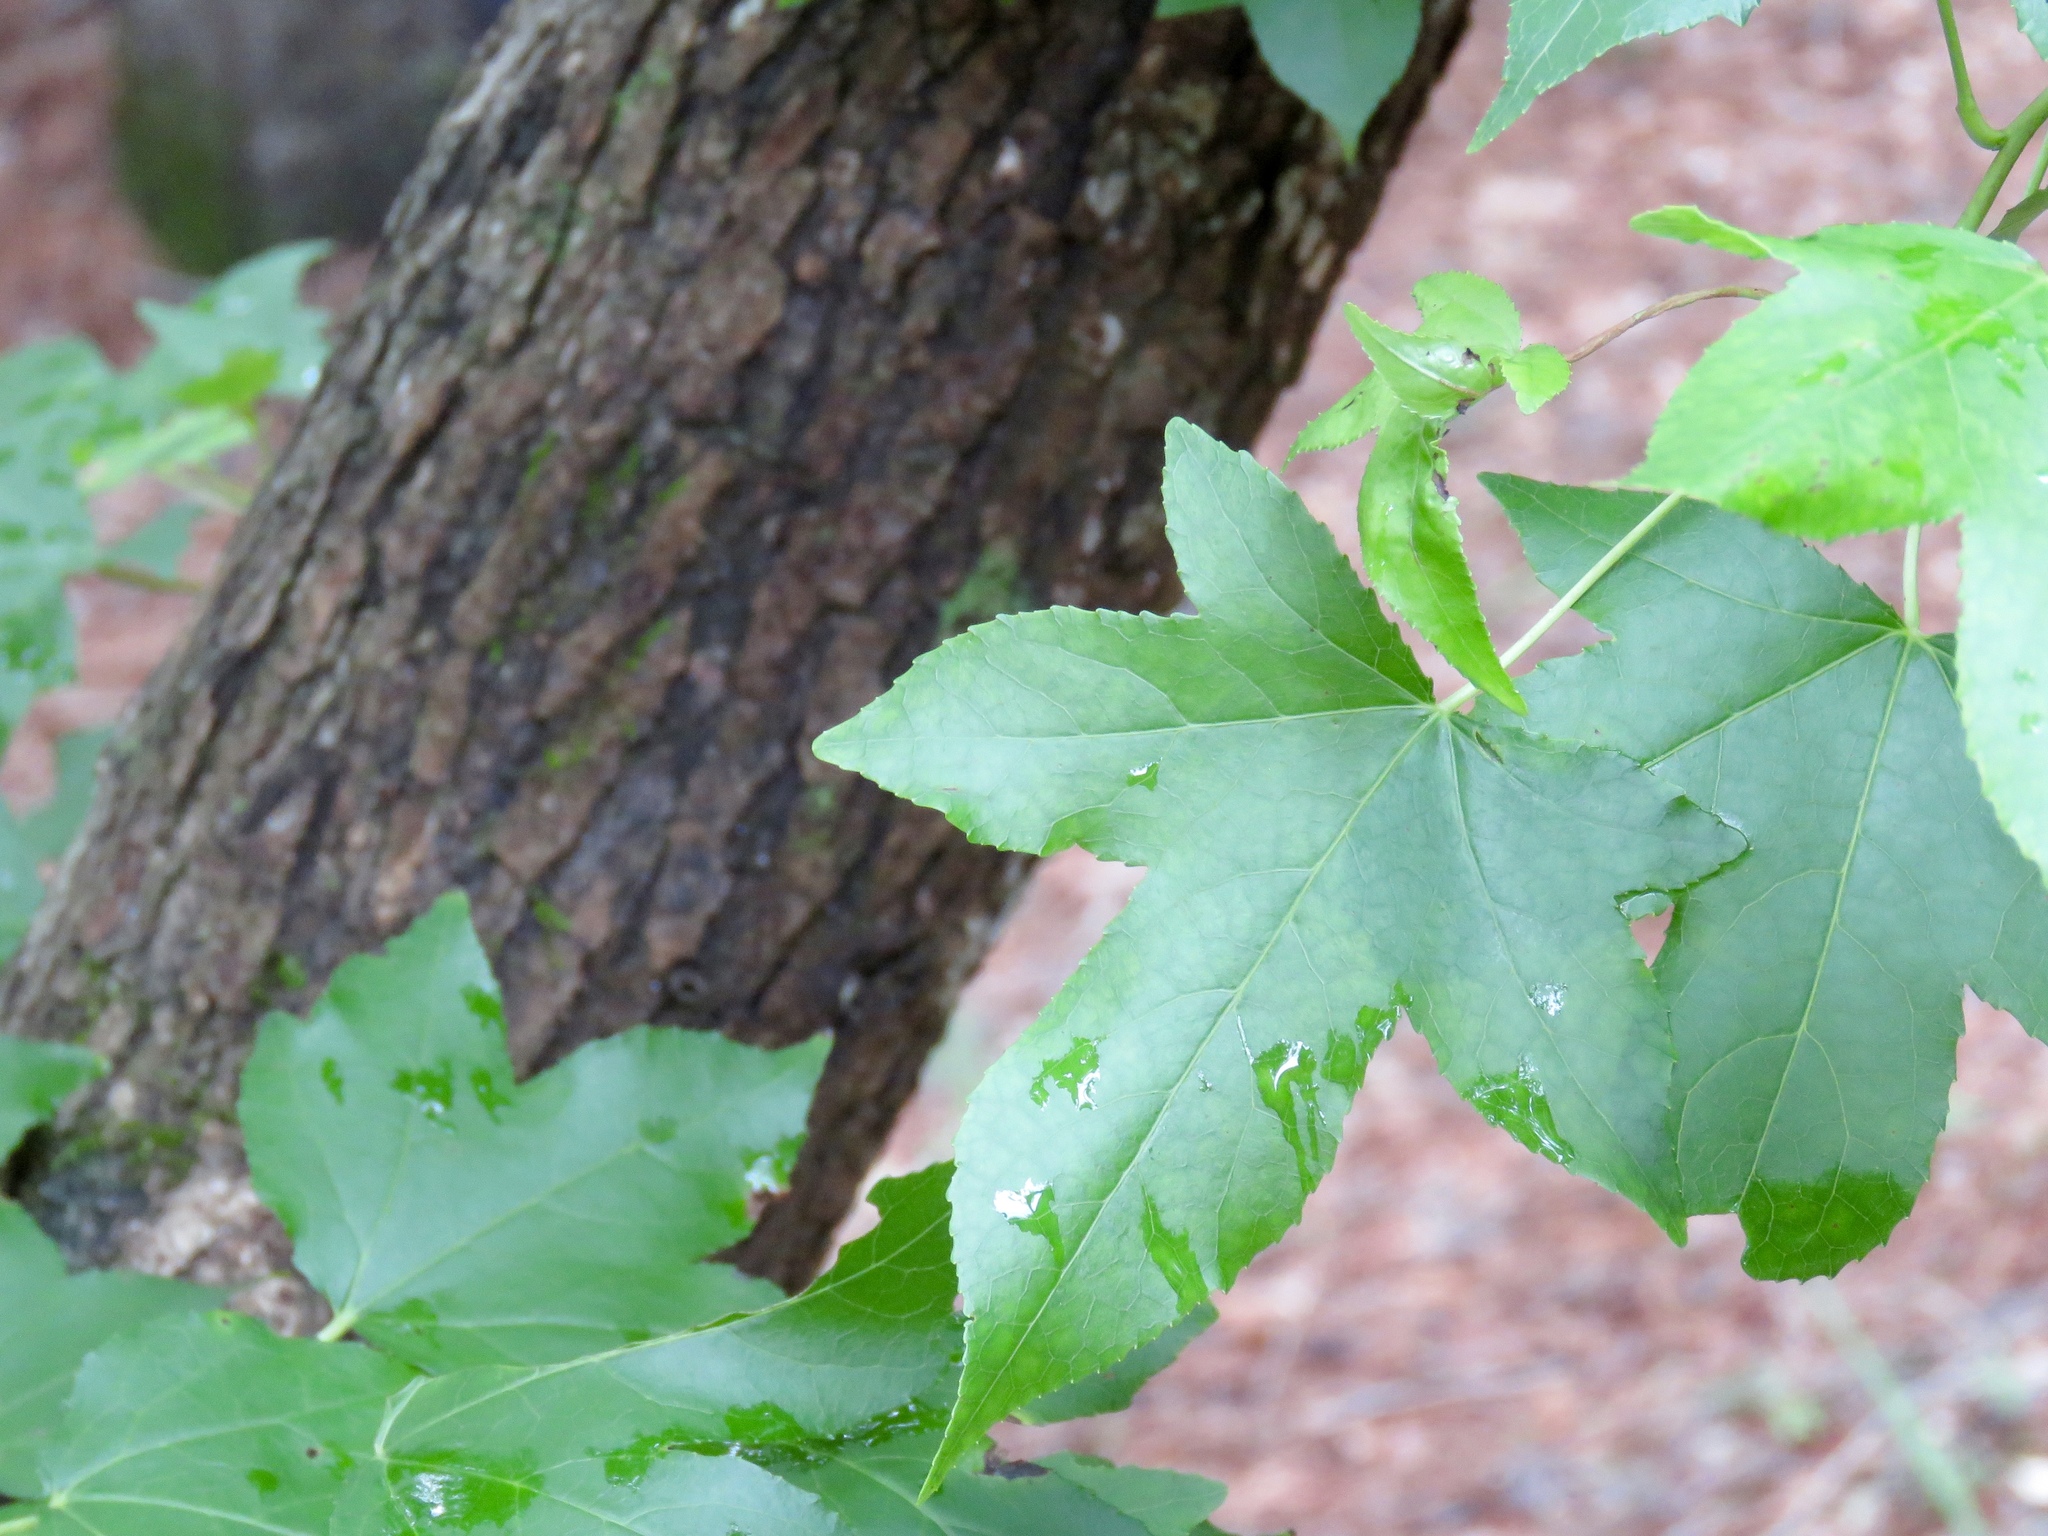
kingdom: Plantae
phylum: Tracheophyta
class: Magnoliopsida
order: Saxifragales
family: Altingiaceae
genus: Liquidambar
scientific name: Liquidambar styraciflua
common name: Sweet gum
